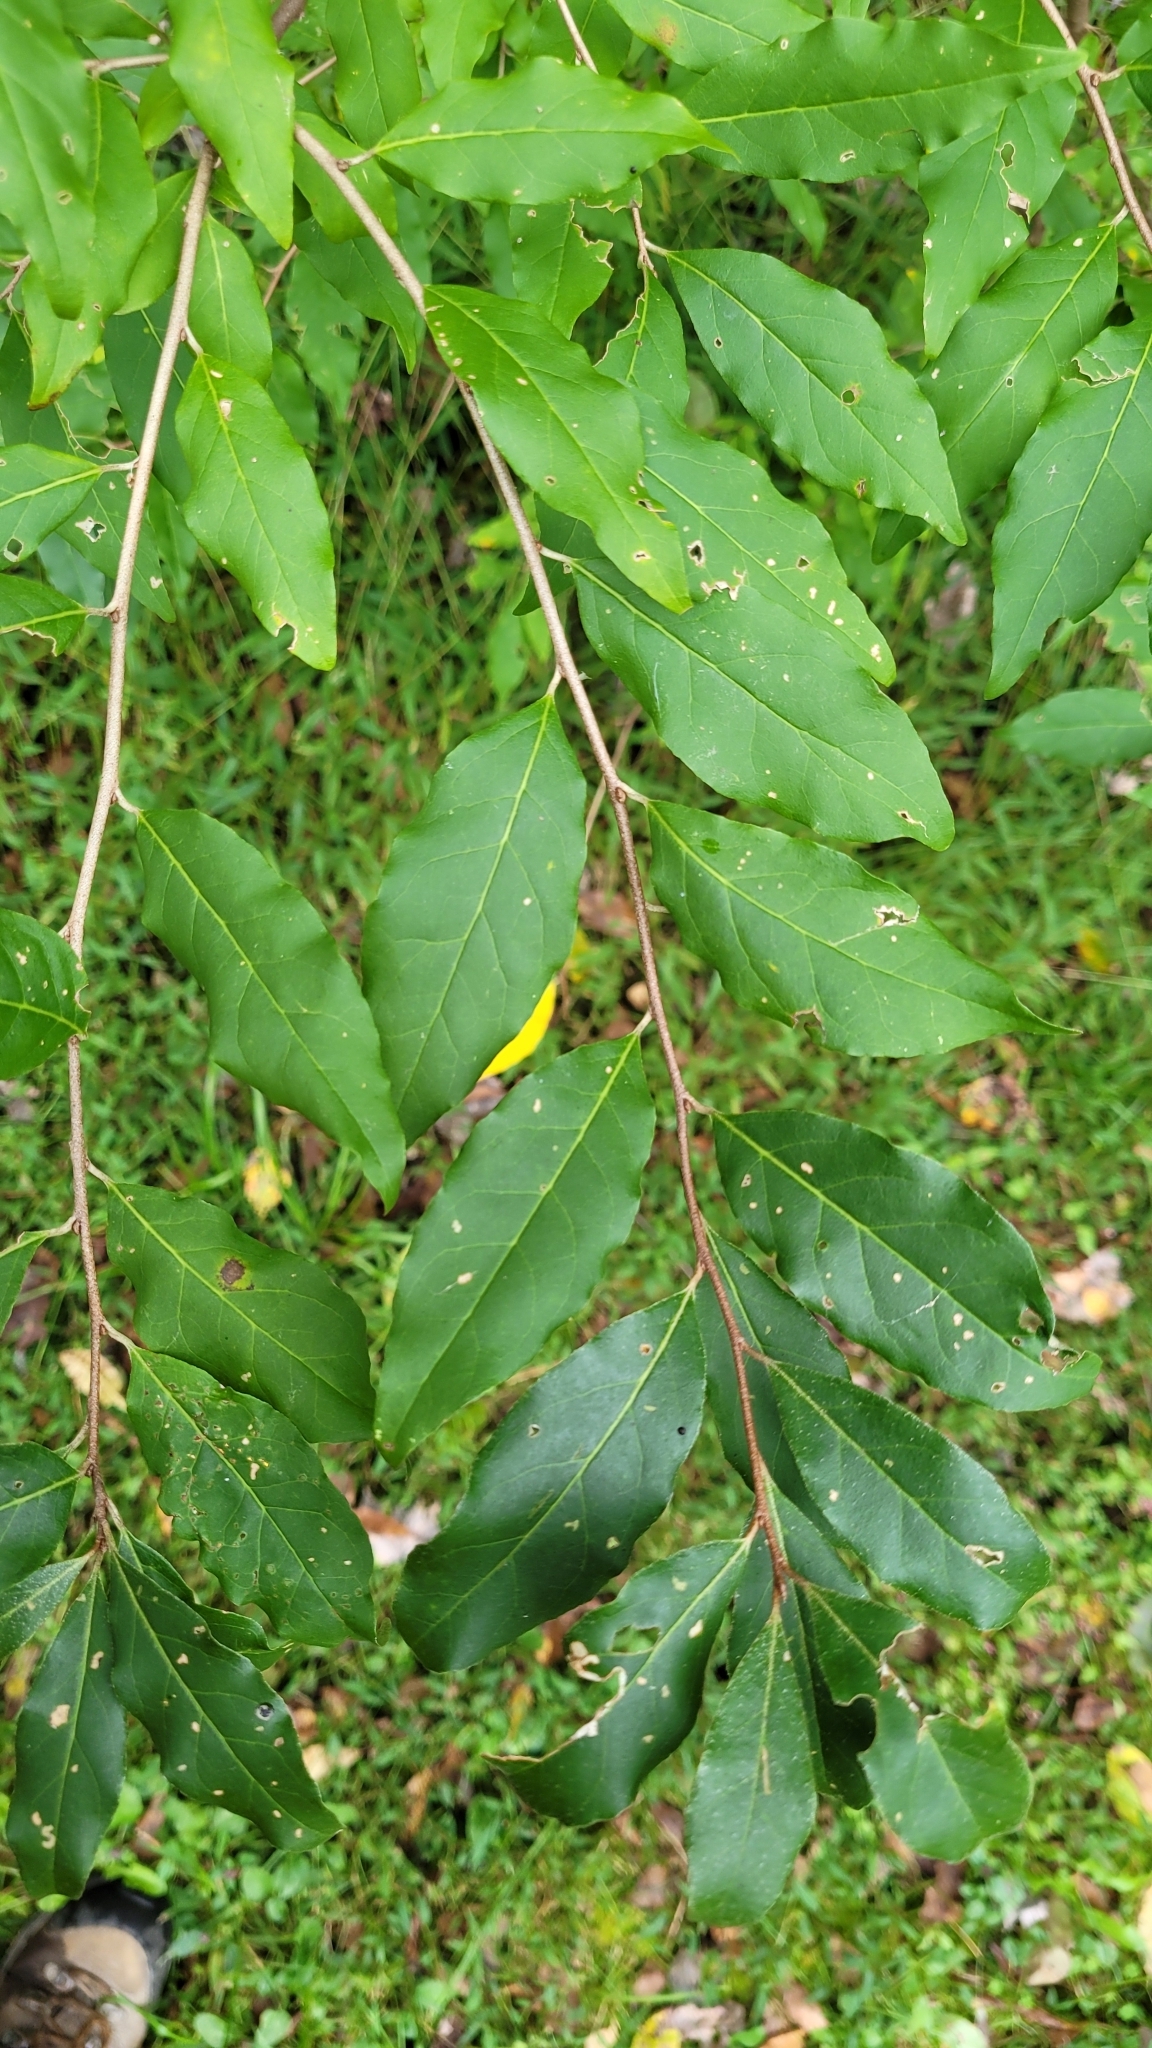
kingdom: Plantae
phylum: Tracheophyta
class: Magnoliopsida
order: Rosales
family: Elaeagnaceae
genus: Elaeagnus
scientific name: Elaeagnus umbellata
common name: Autumn olive
